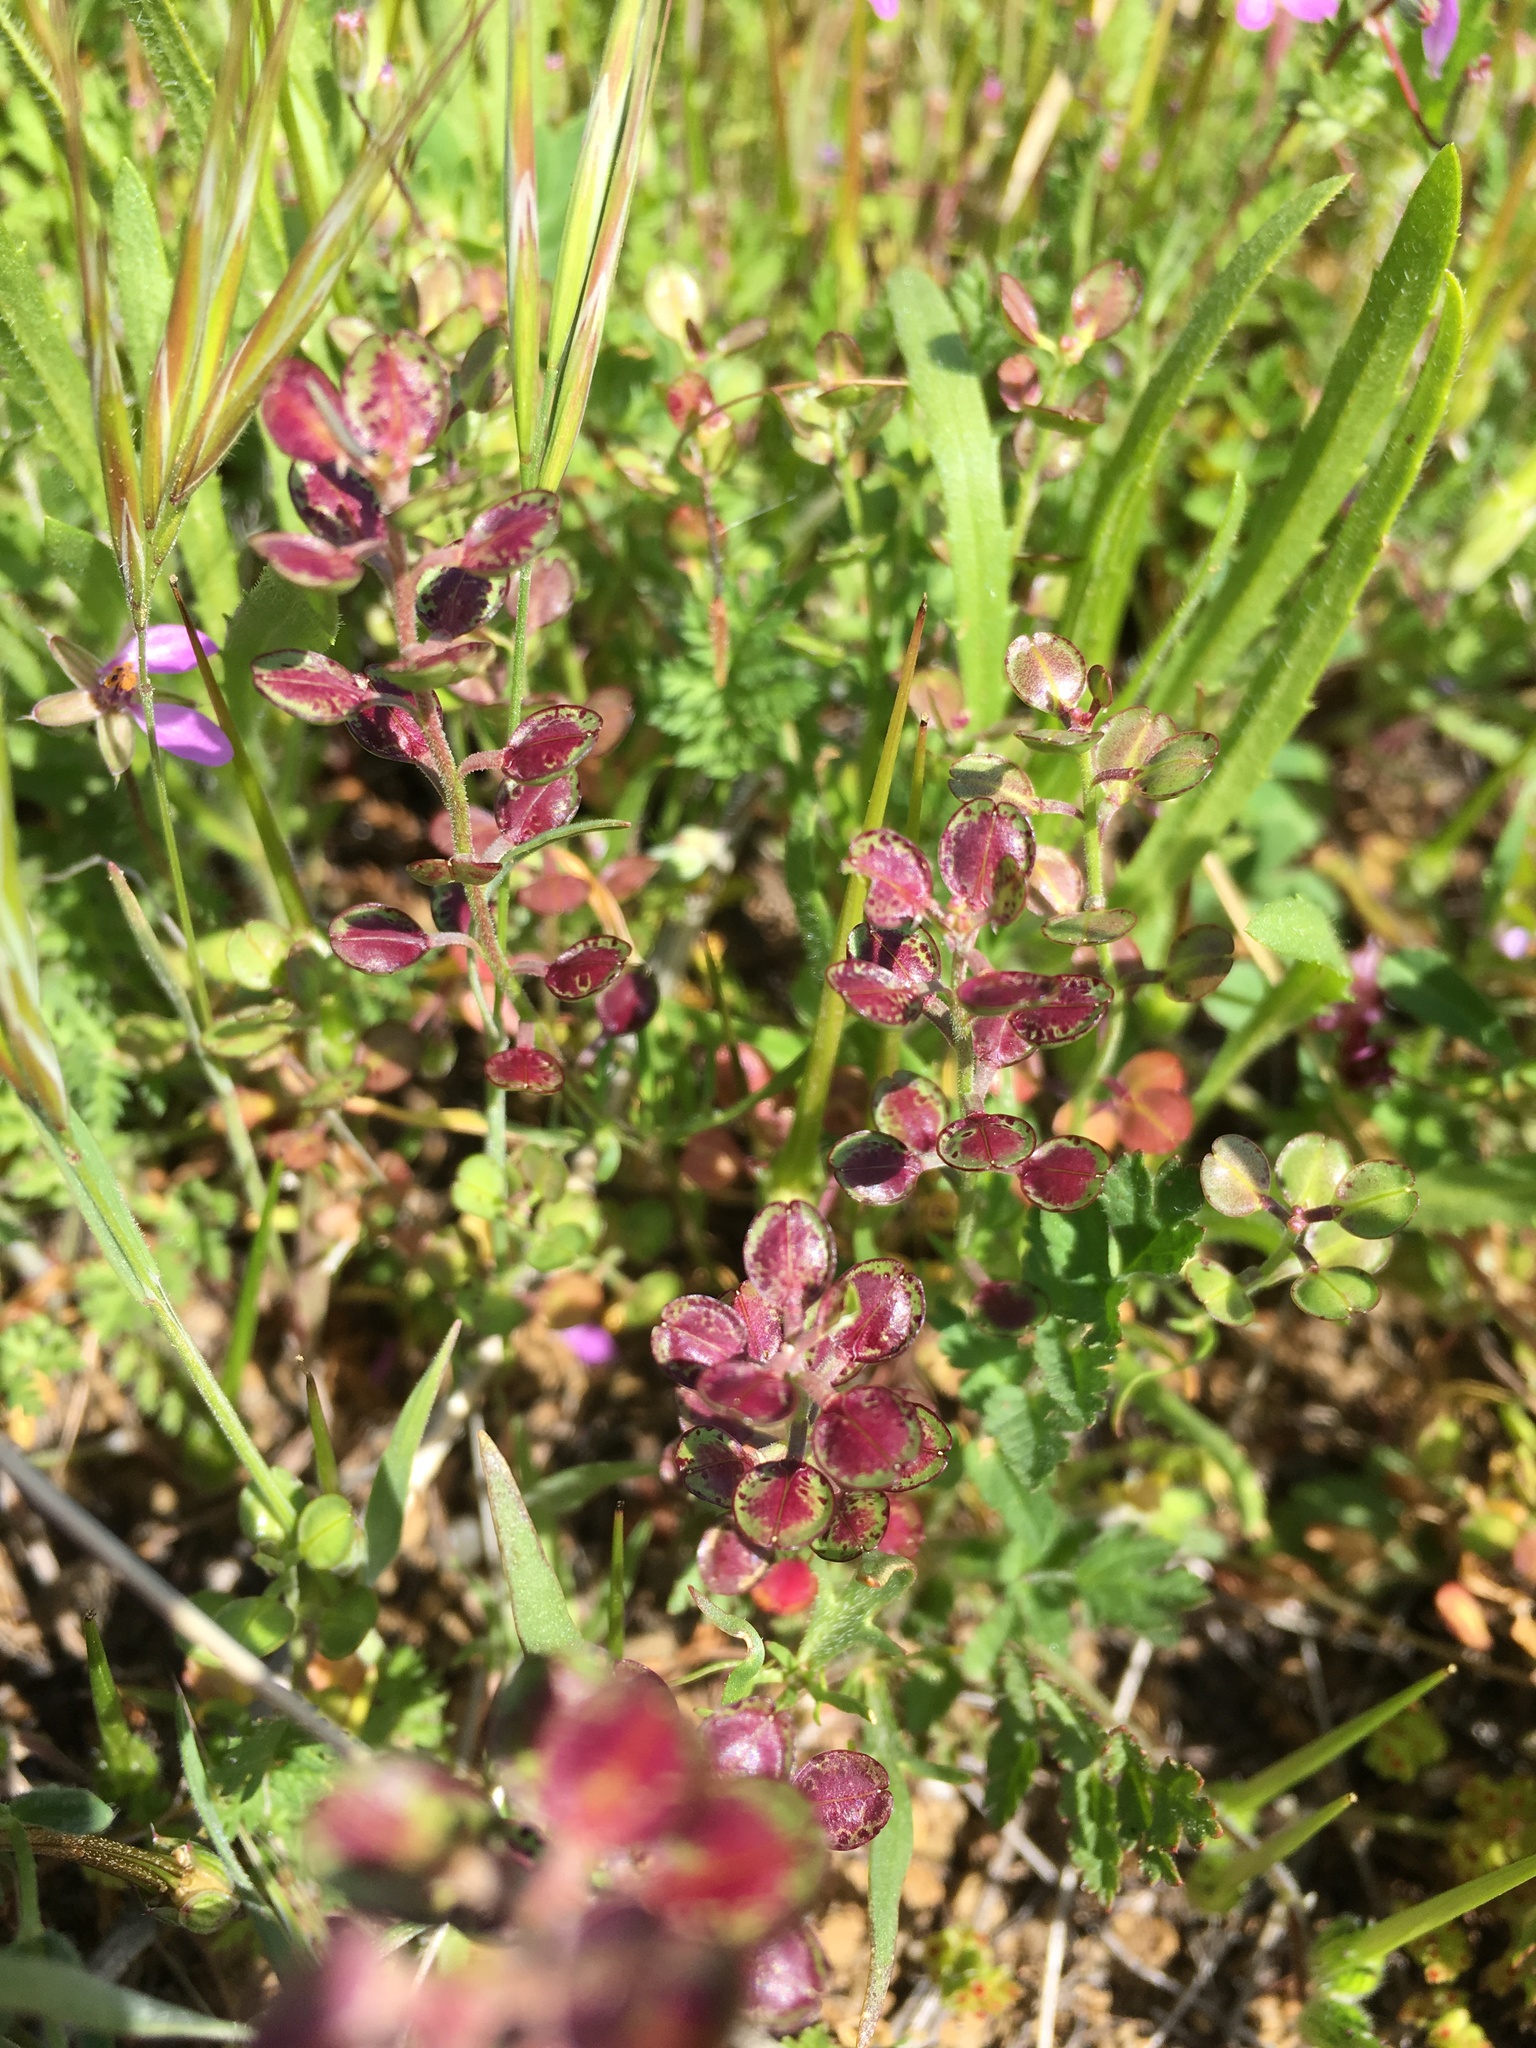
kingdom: Plantae
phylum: Tracheophyta
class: Magnoliopsida
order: Brassicales
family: Brassicaceae
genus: Lepidium
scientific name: Lepidium nitidum
